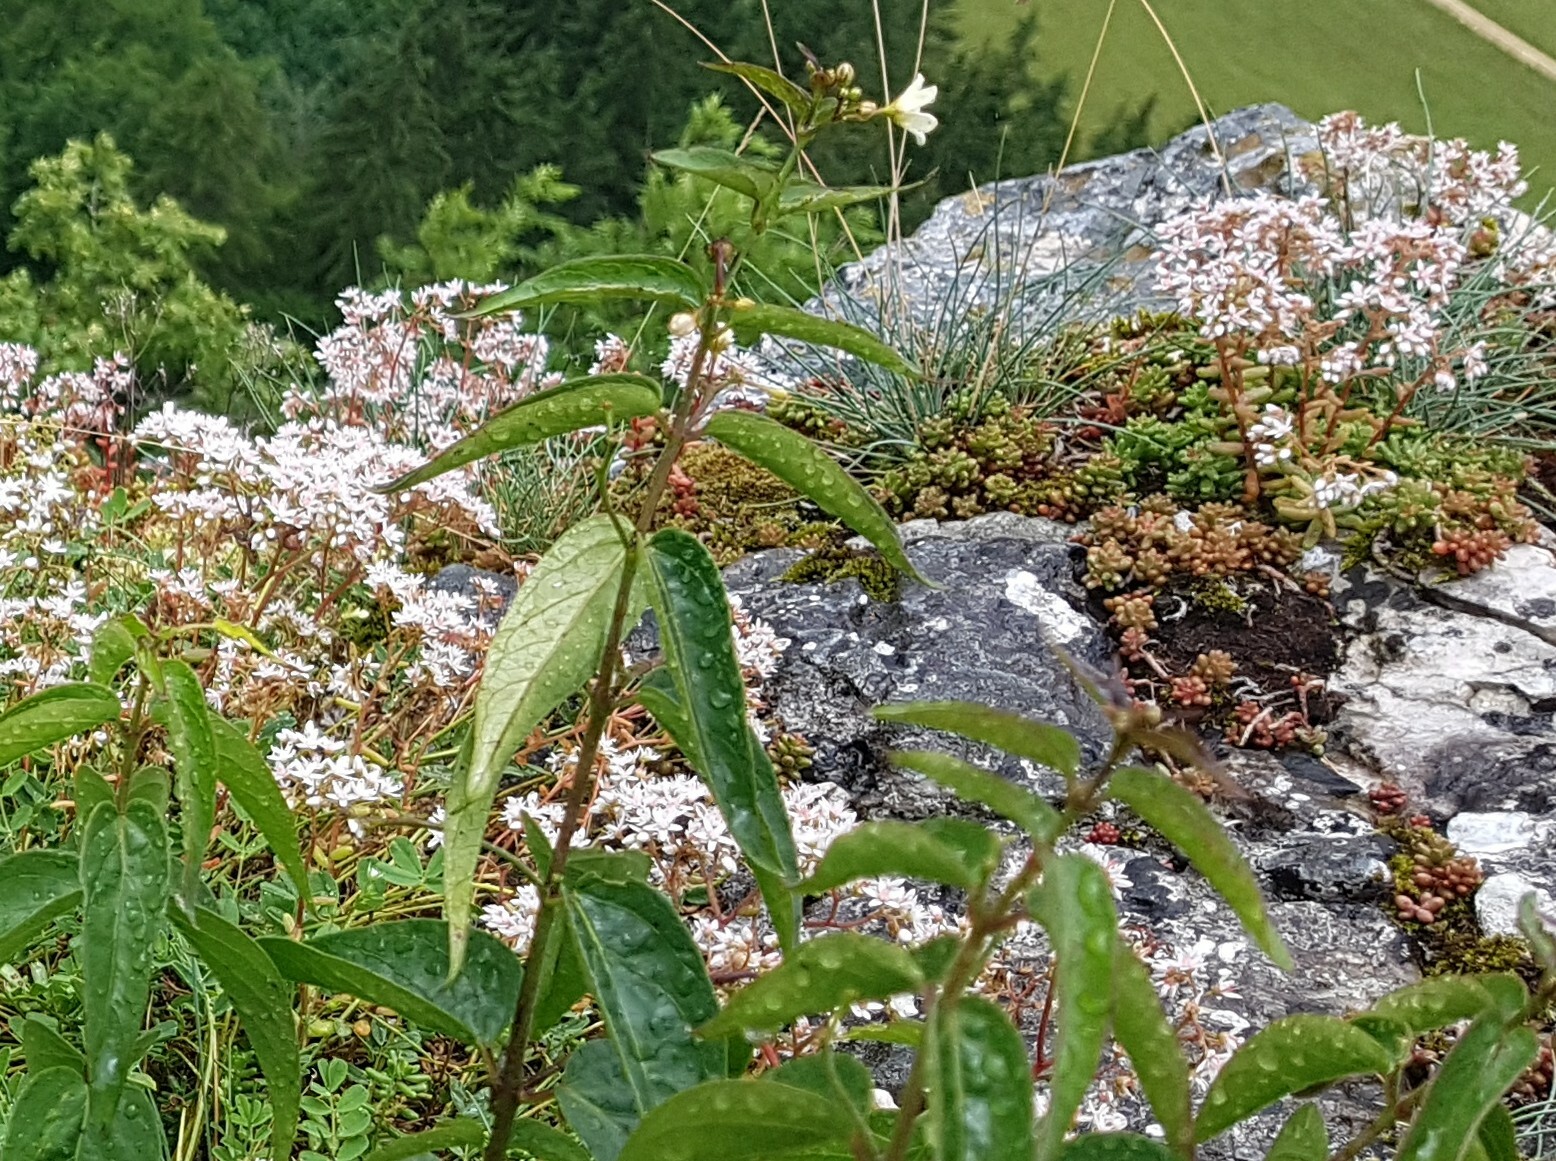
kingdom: Plantae
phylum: Tracheophyta
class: Magnoliopsida
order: Gentianales
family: Apocynaceae
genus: Vincetoxicum
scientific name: Vincetoxicum hirundinaria
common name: White swallowwort
